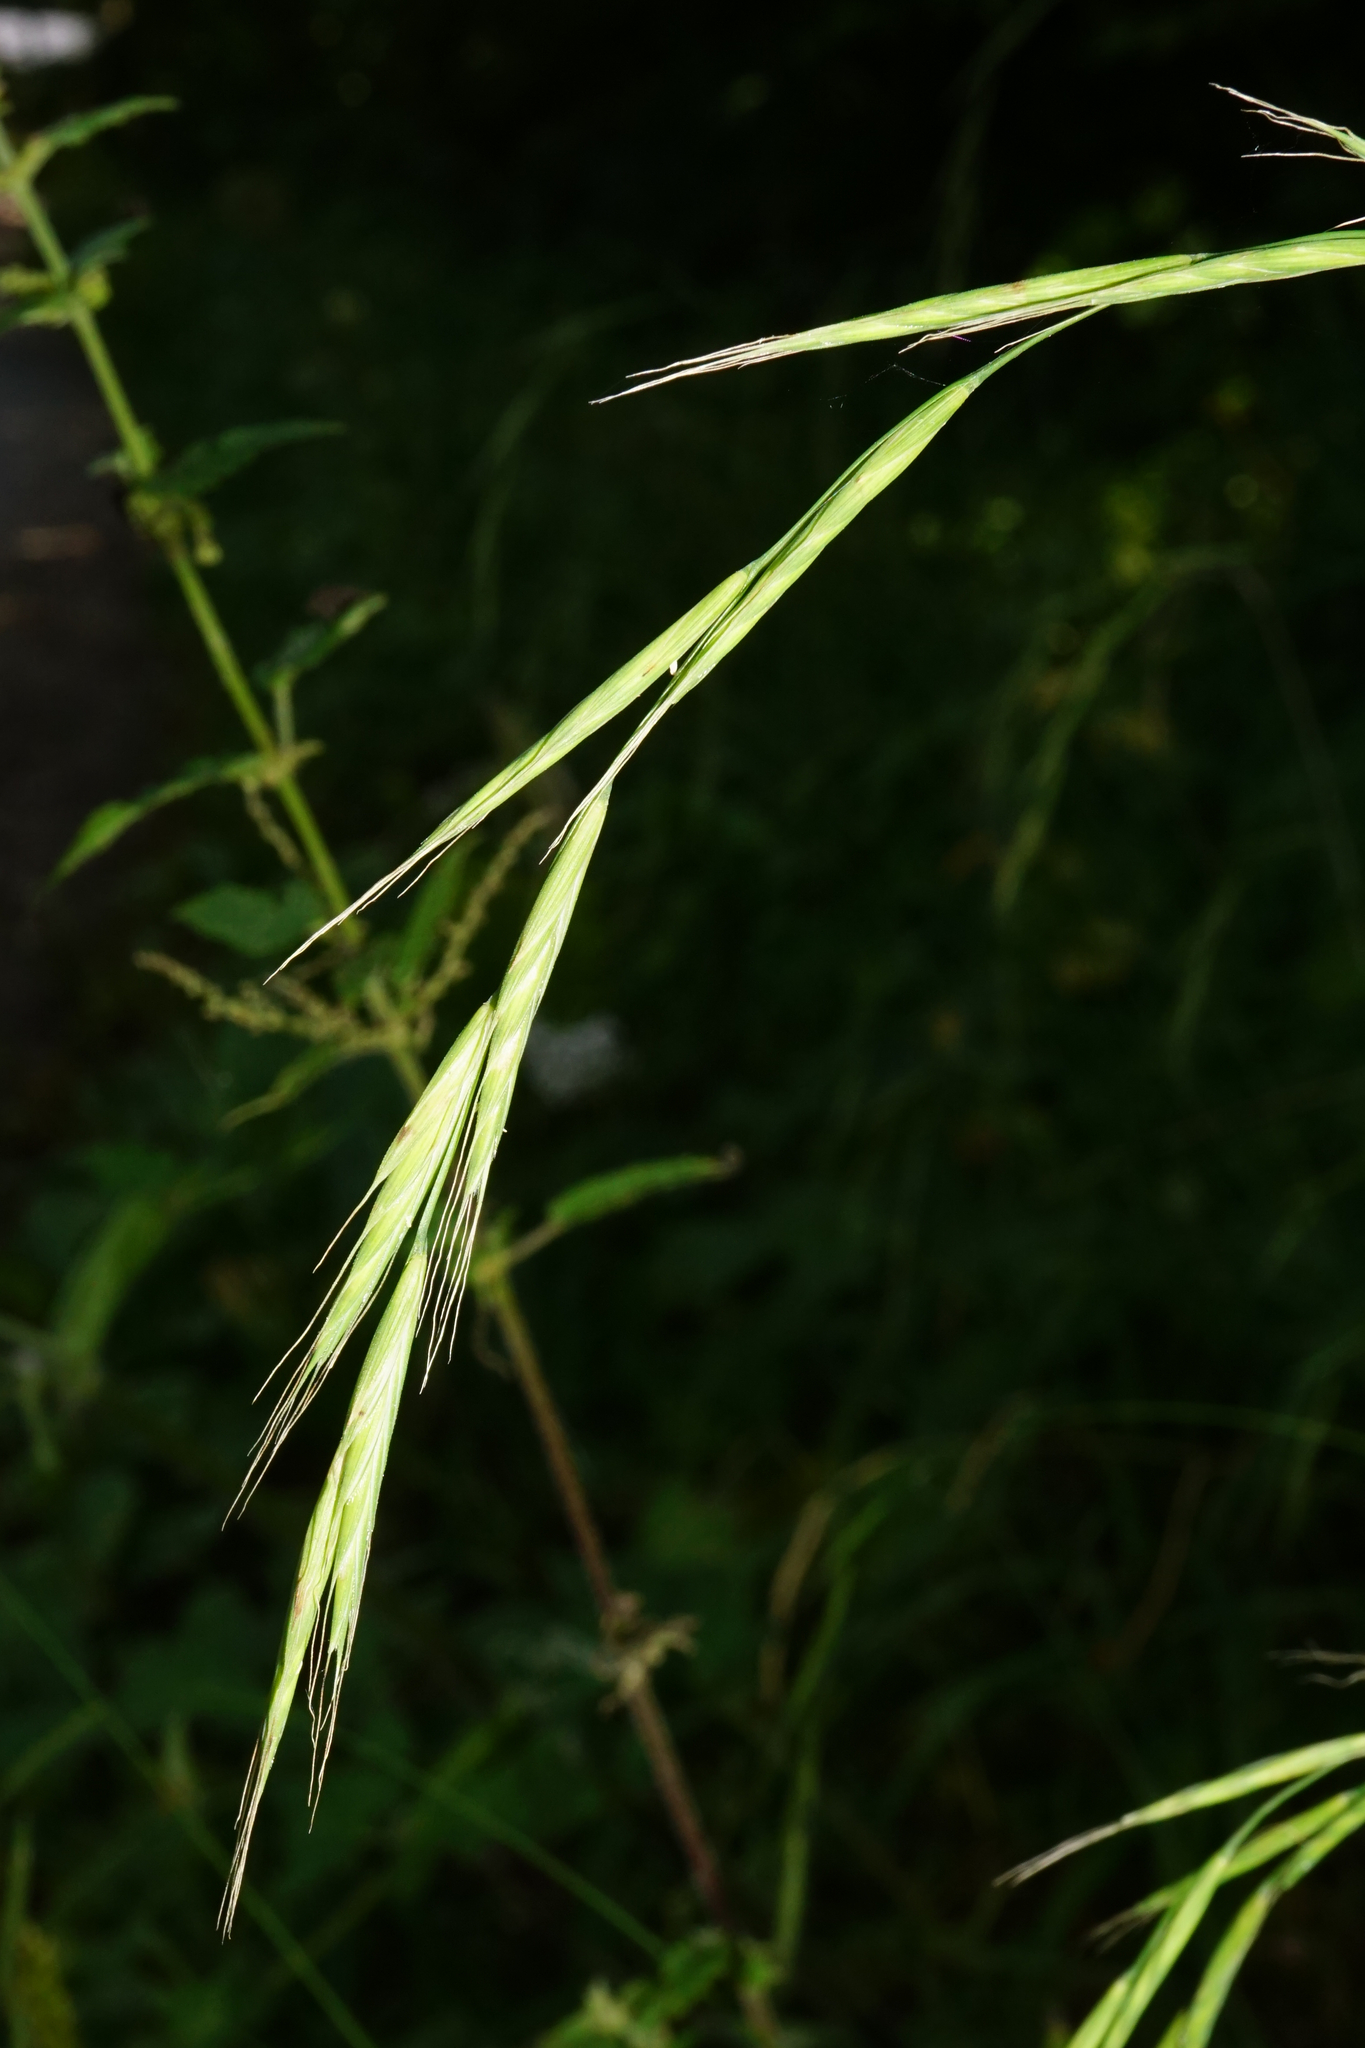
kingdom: Plantae
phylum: Tracheophyta
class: Liliopsida
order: Poales
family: Poaceae
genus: Brachypodium
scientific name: Brachypodium sylvaticum
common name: False-brome
